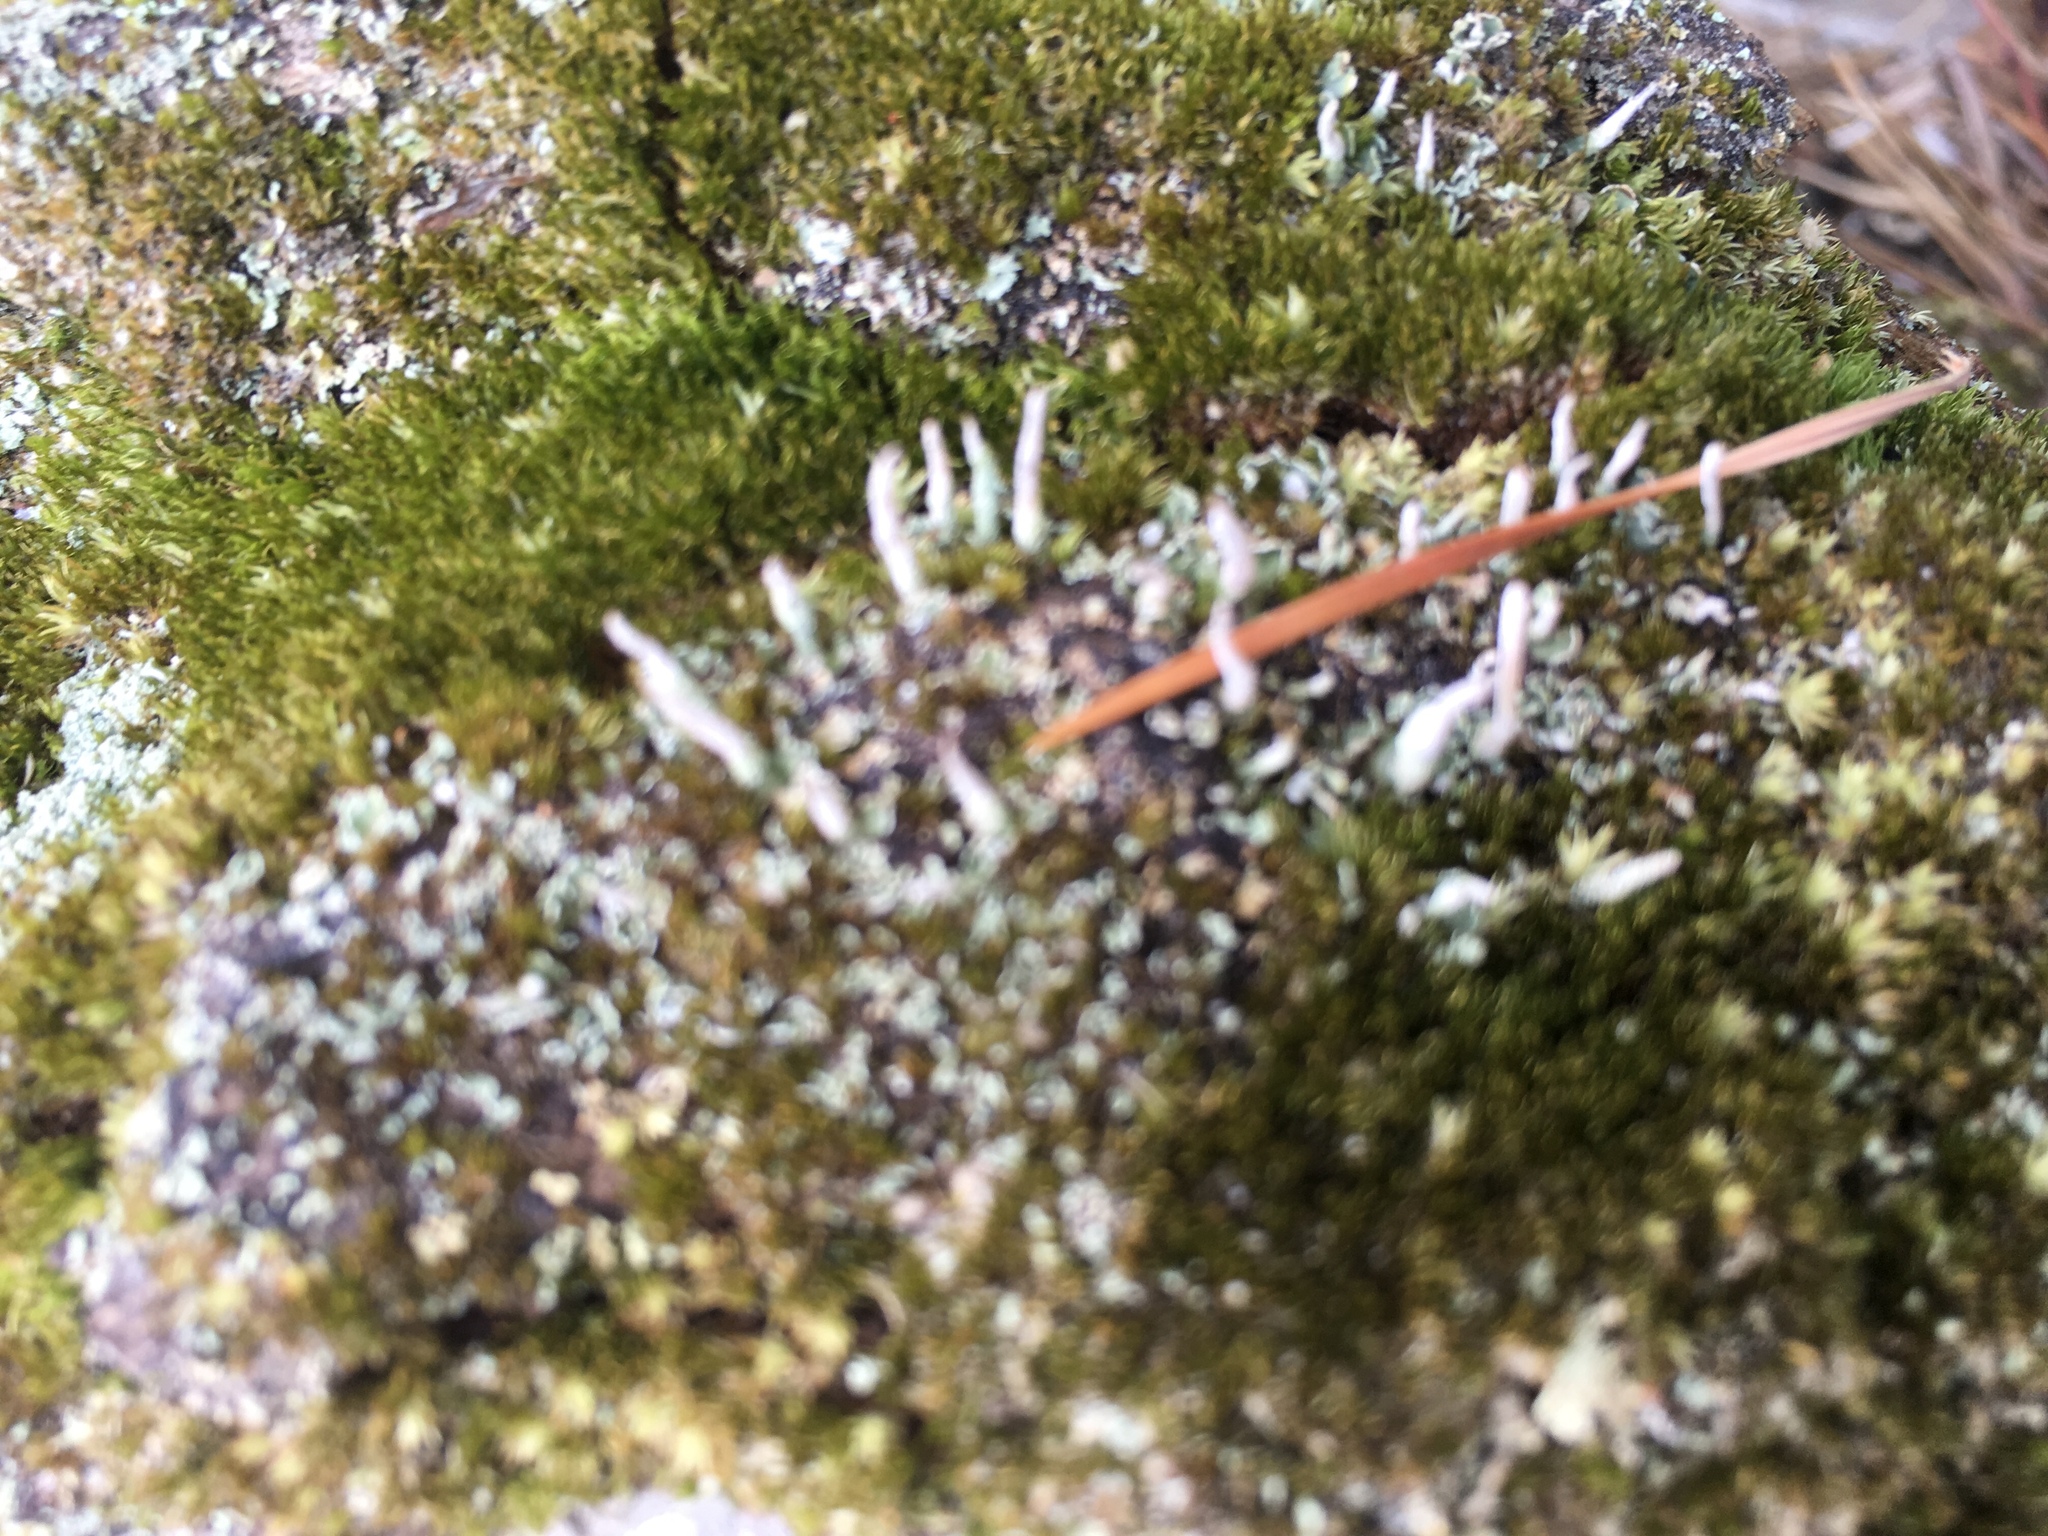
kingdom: Fungi
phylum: Ascomycota
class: Lecanoromycetes
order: Lecanorales
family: Cladoniaceae
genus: Cladonia
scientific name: Cladonia coniocraea
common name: Common powderhorn
